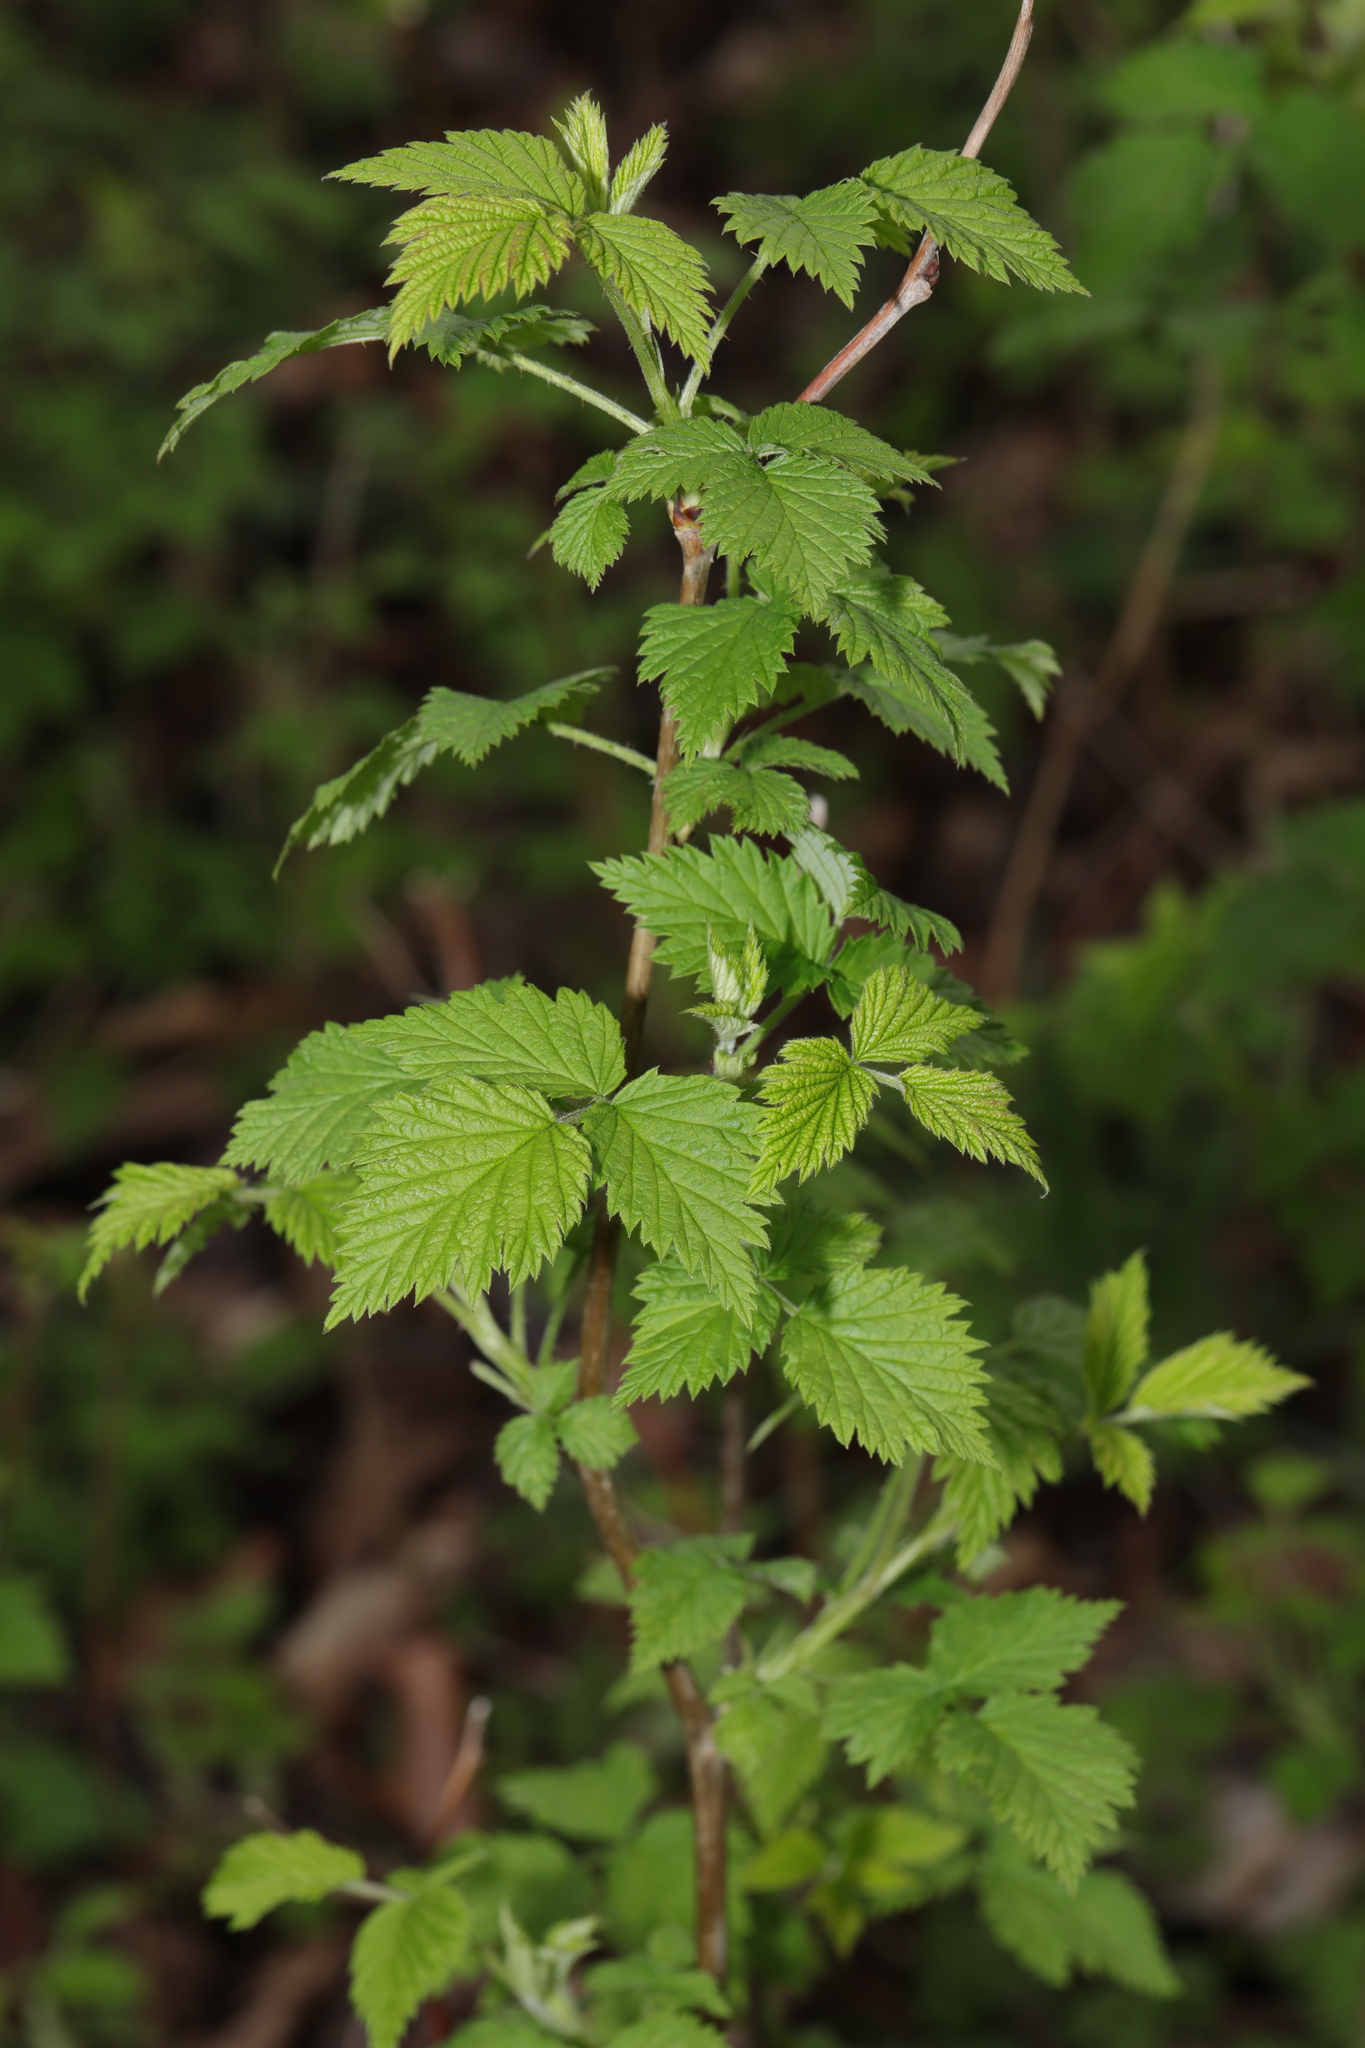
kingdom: Plantae
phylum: Tracheophyta
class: Magnoliopsida
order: Rosales
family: Rosaceae
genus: Rubus
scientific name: Rubus idaeus
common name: Raspberry
